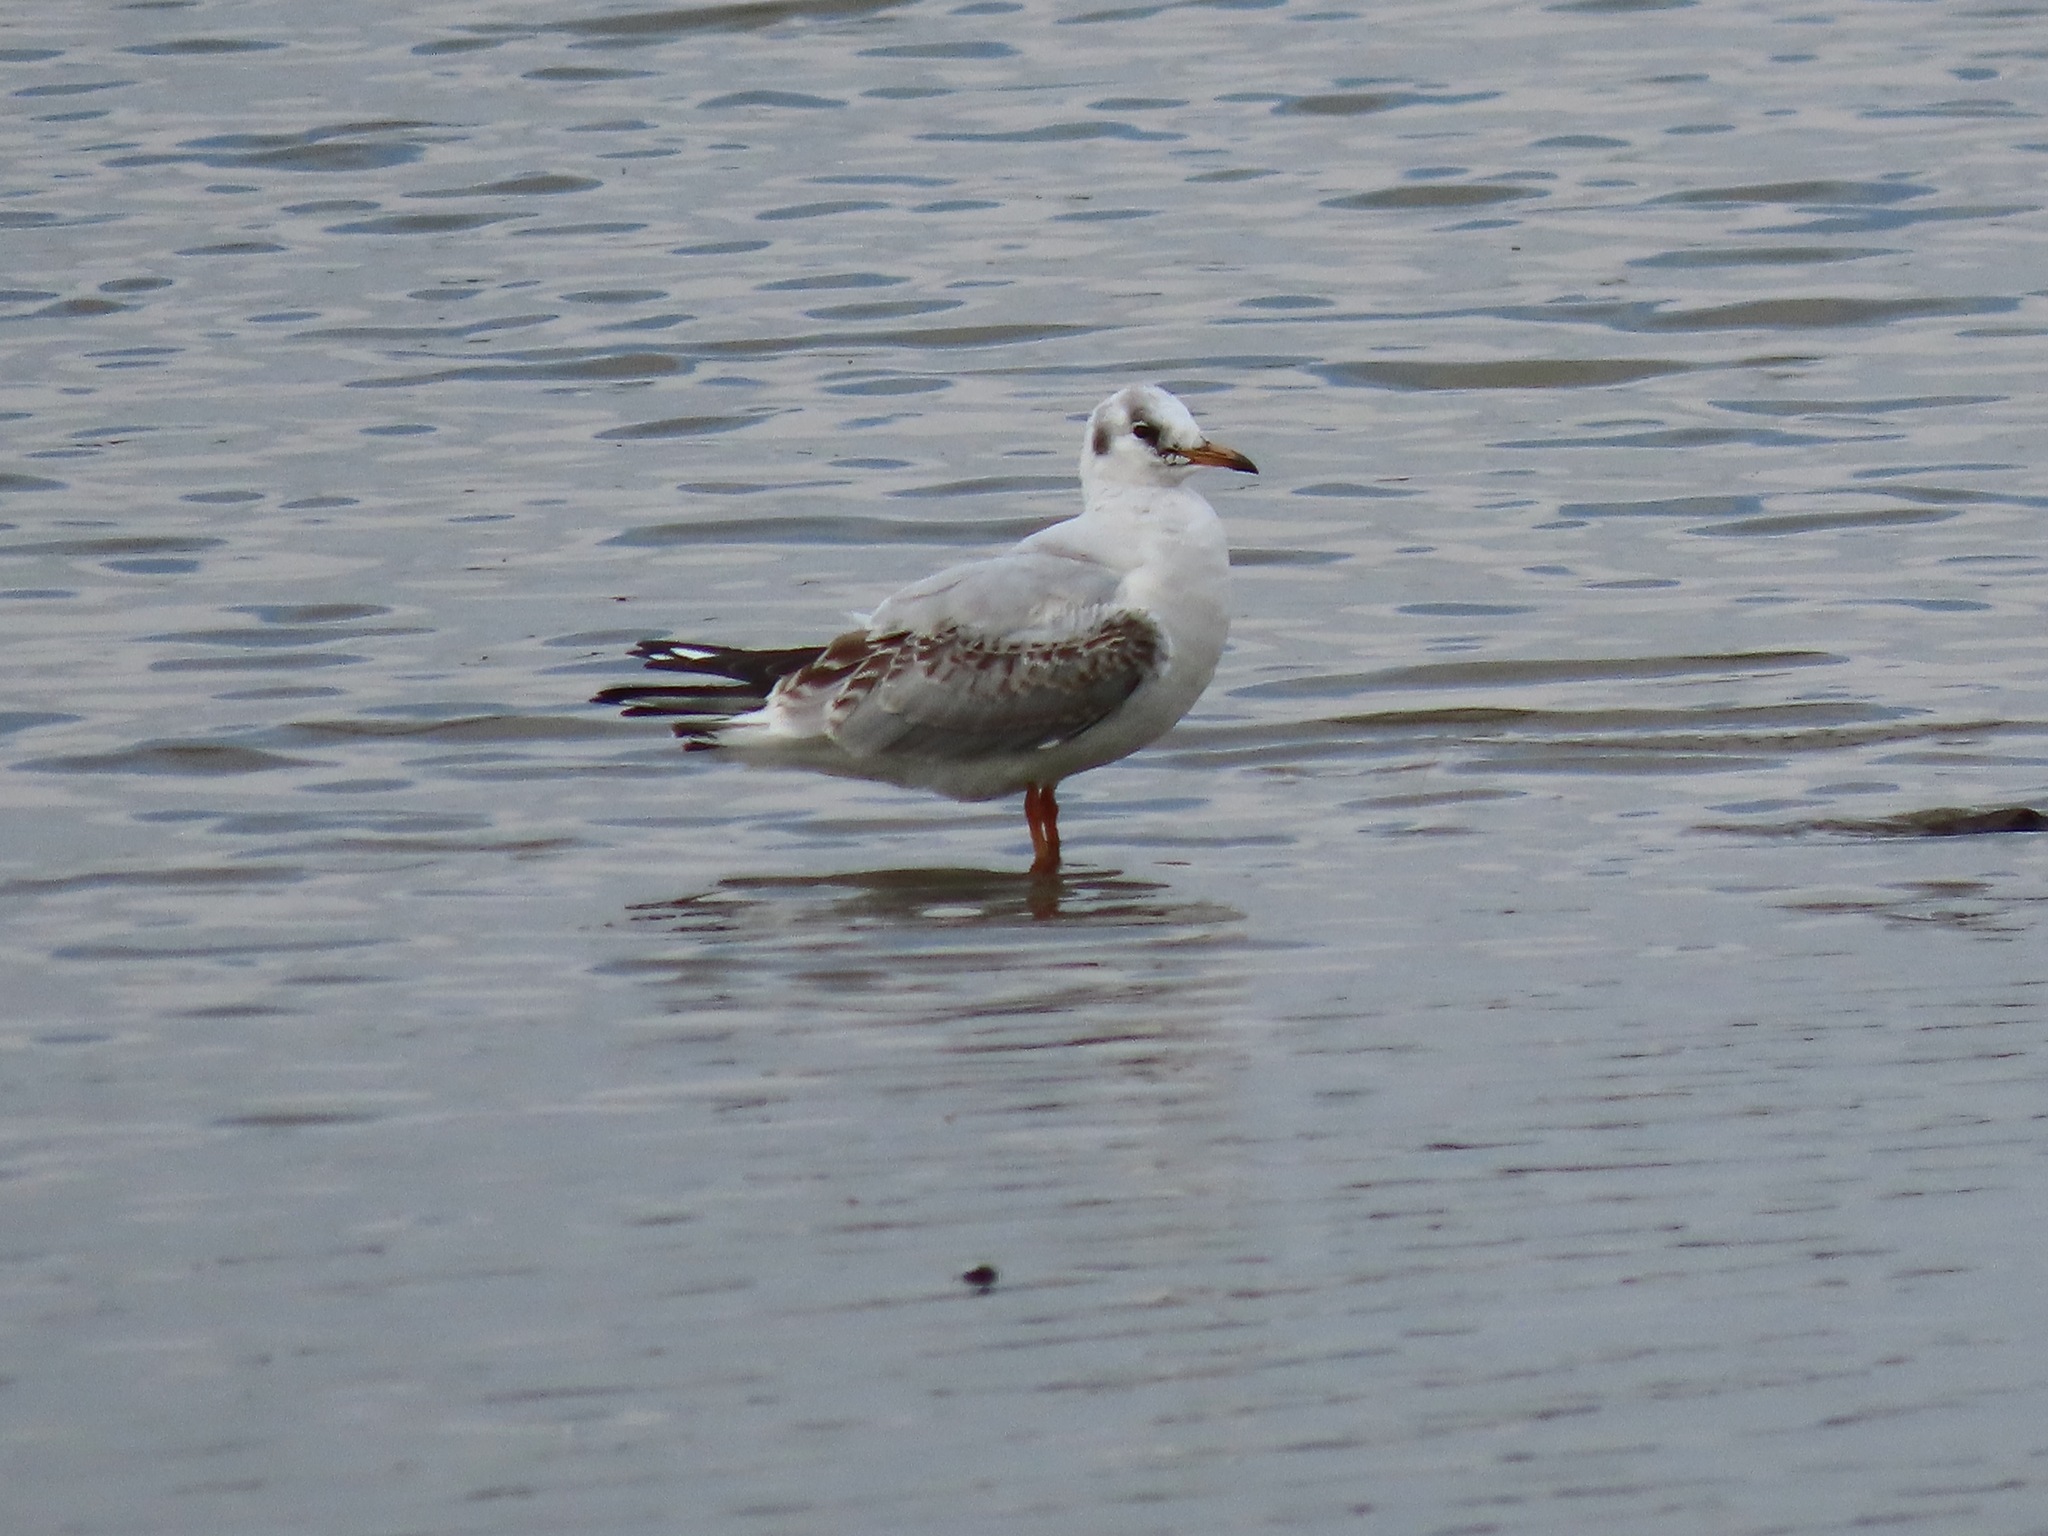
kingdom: Animalia
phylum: Chordata
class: Aves
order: Charadriiformes
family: Laridae
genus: Chroicocephalus
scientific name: Chroicocephalus ridibundus
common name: Black-headed gull
